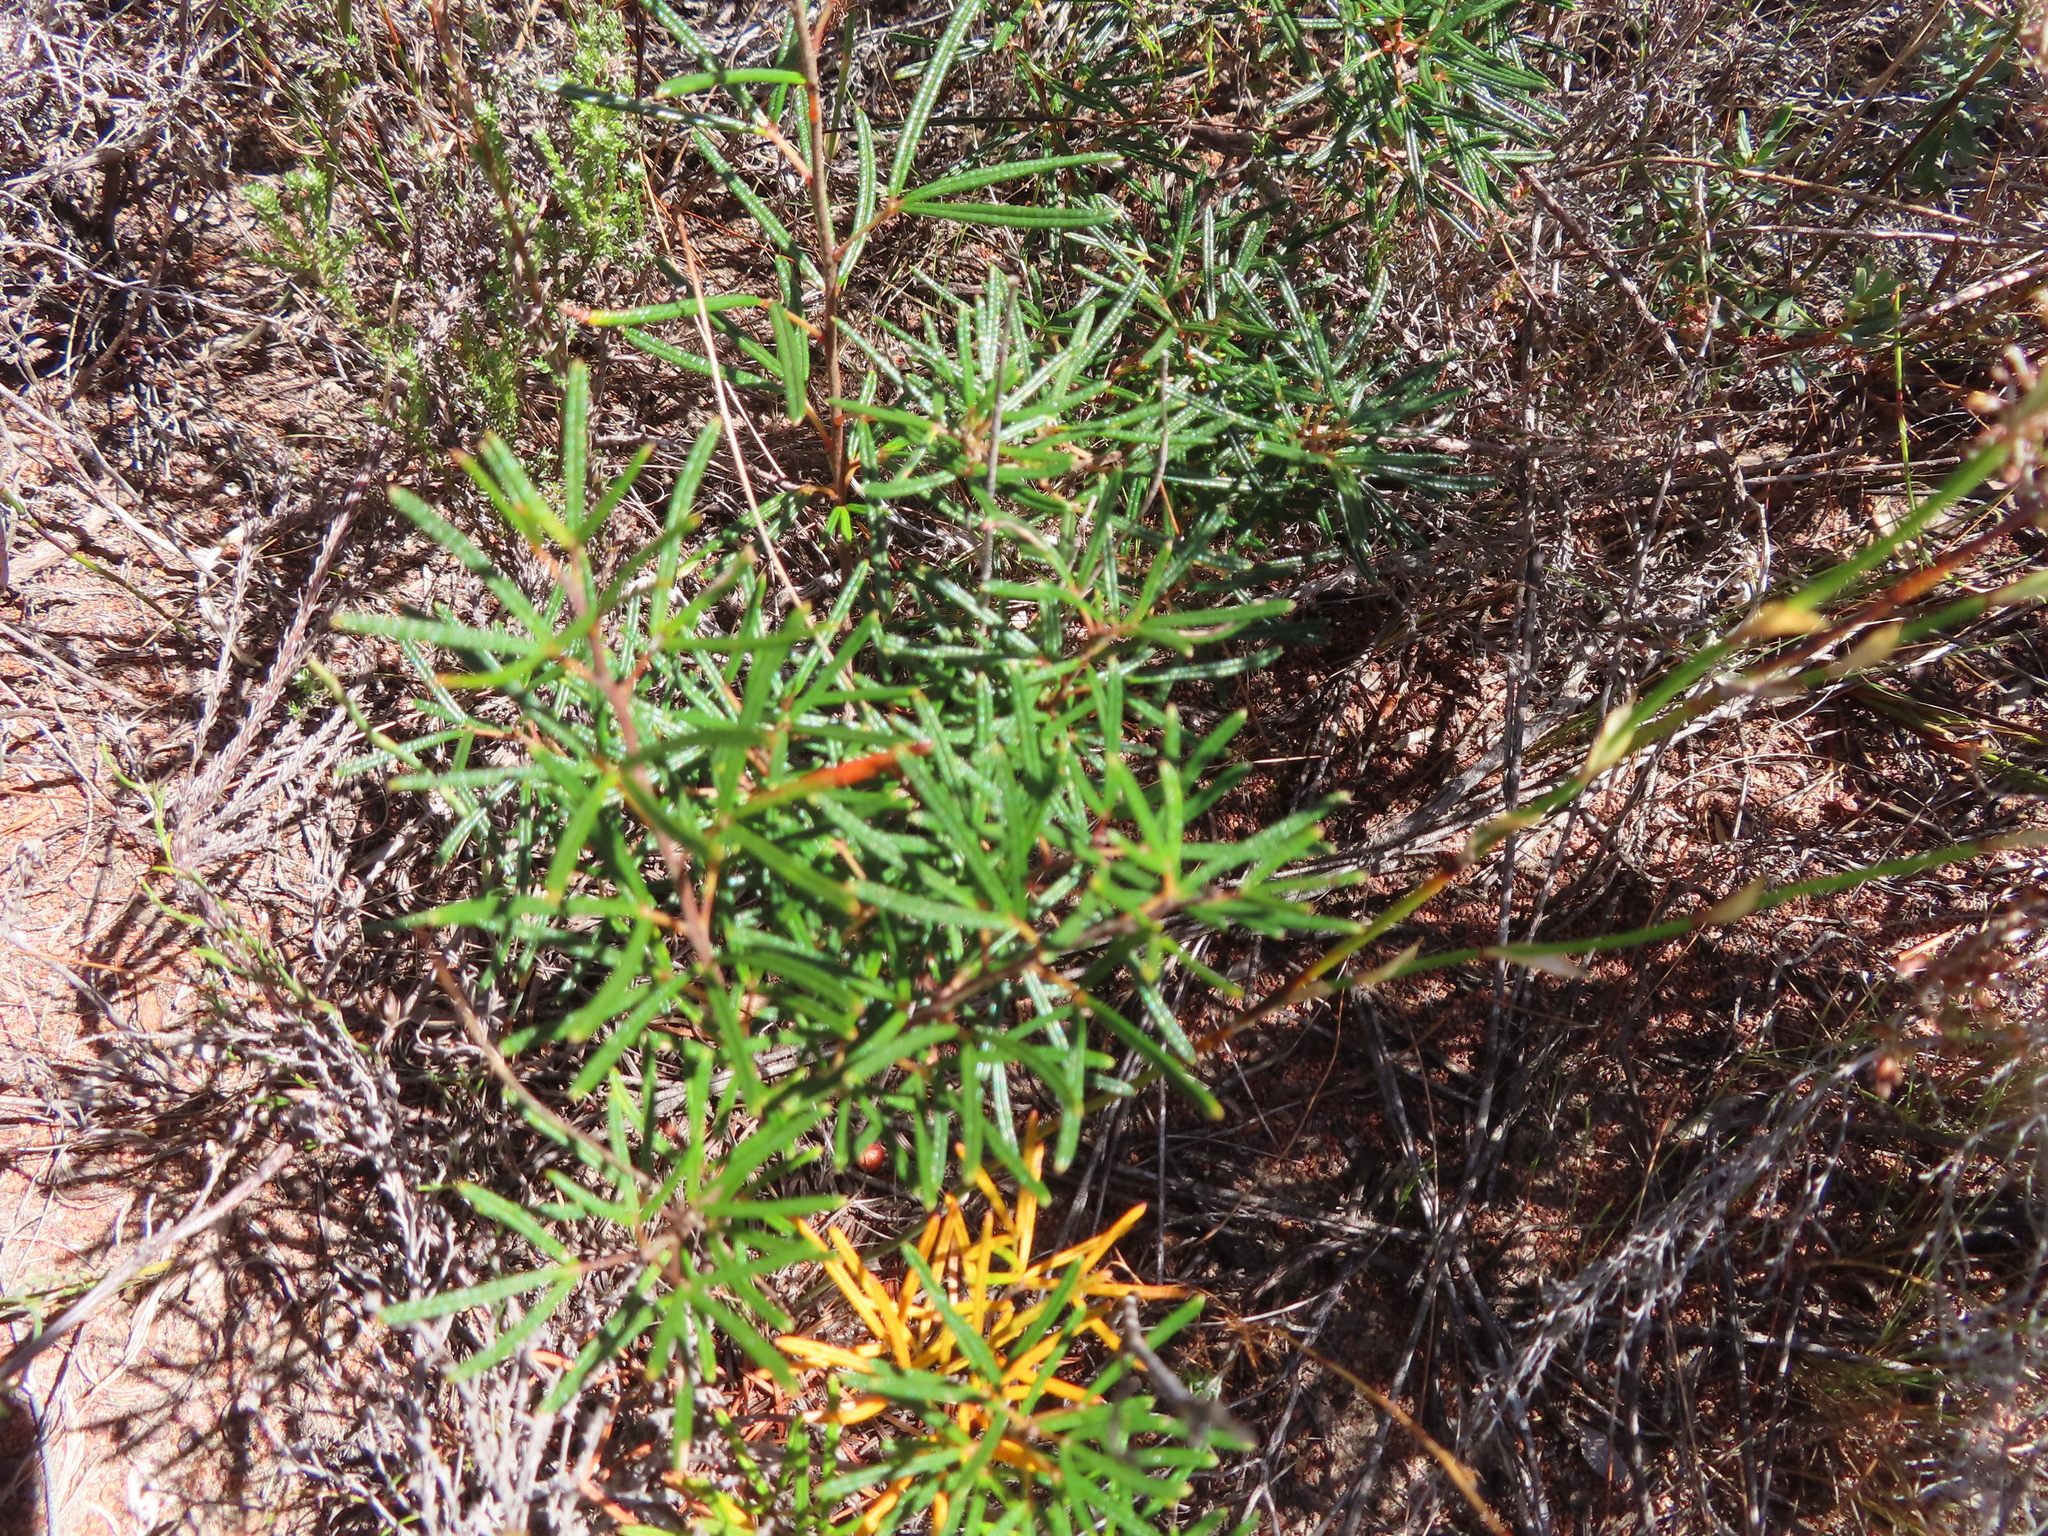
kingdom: Plantae
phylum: Tracheophyta
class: Magnoliopsida
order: Sapindales
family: Anacardiaceae
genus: Searsia
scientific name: Searsia rosmarinifolia
